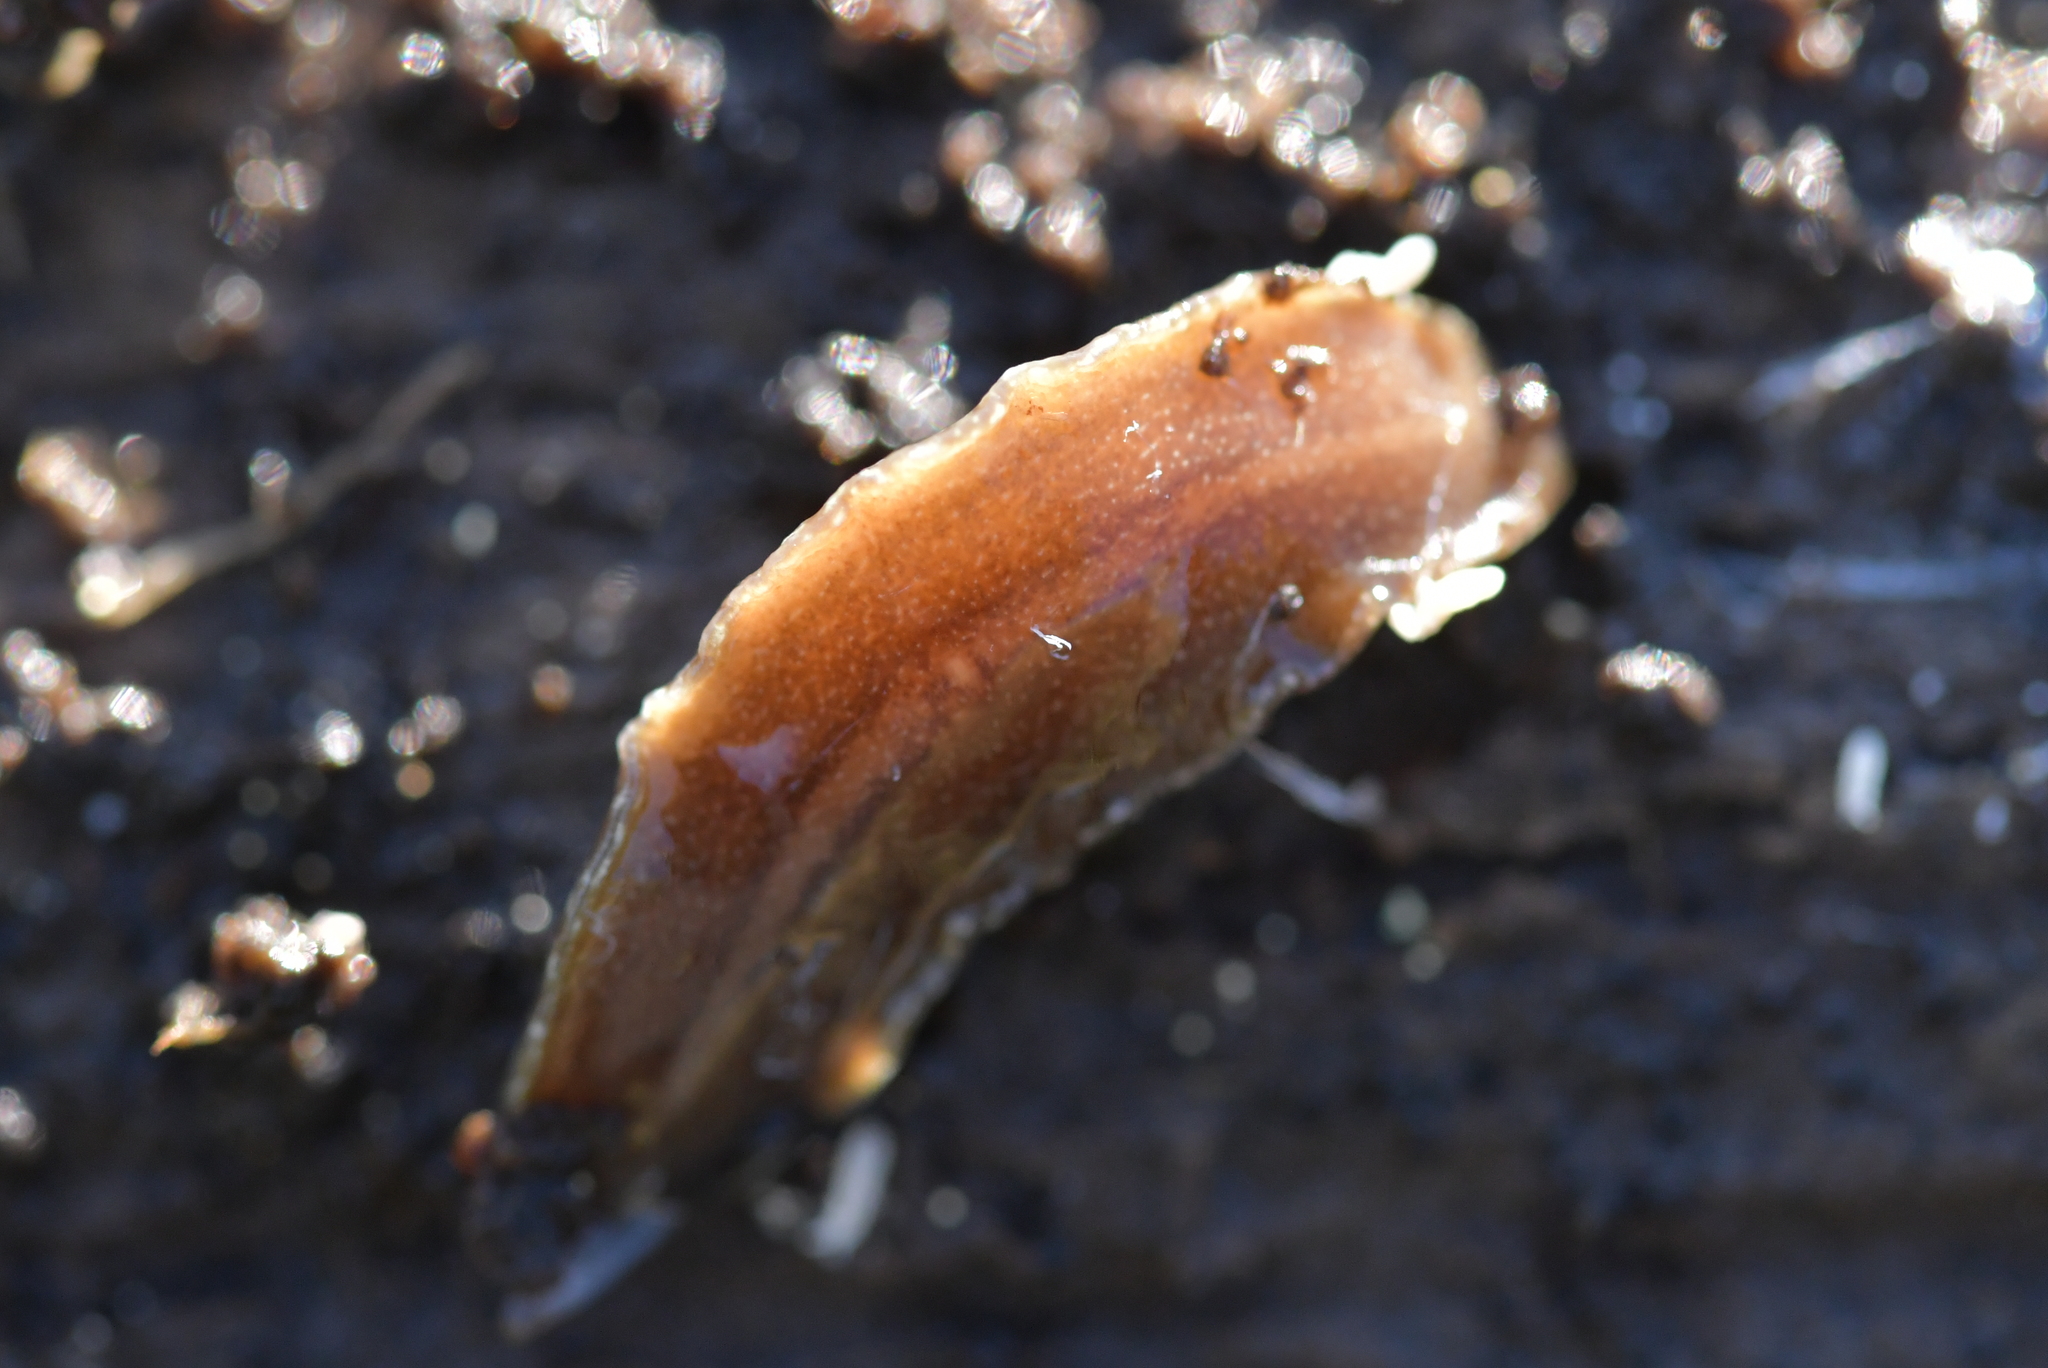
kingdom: Animalia
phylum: Platyhelminthes
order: Tricladida
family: Geoplanidae
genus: Newzealandia
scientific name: Newzealandia graffii
